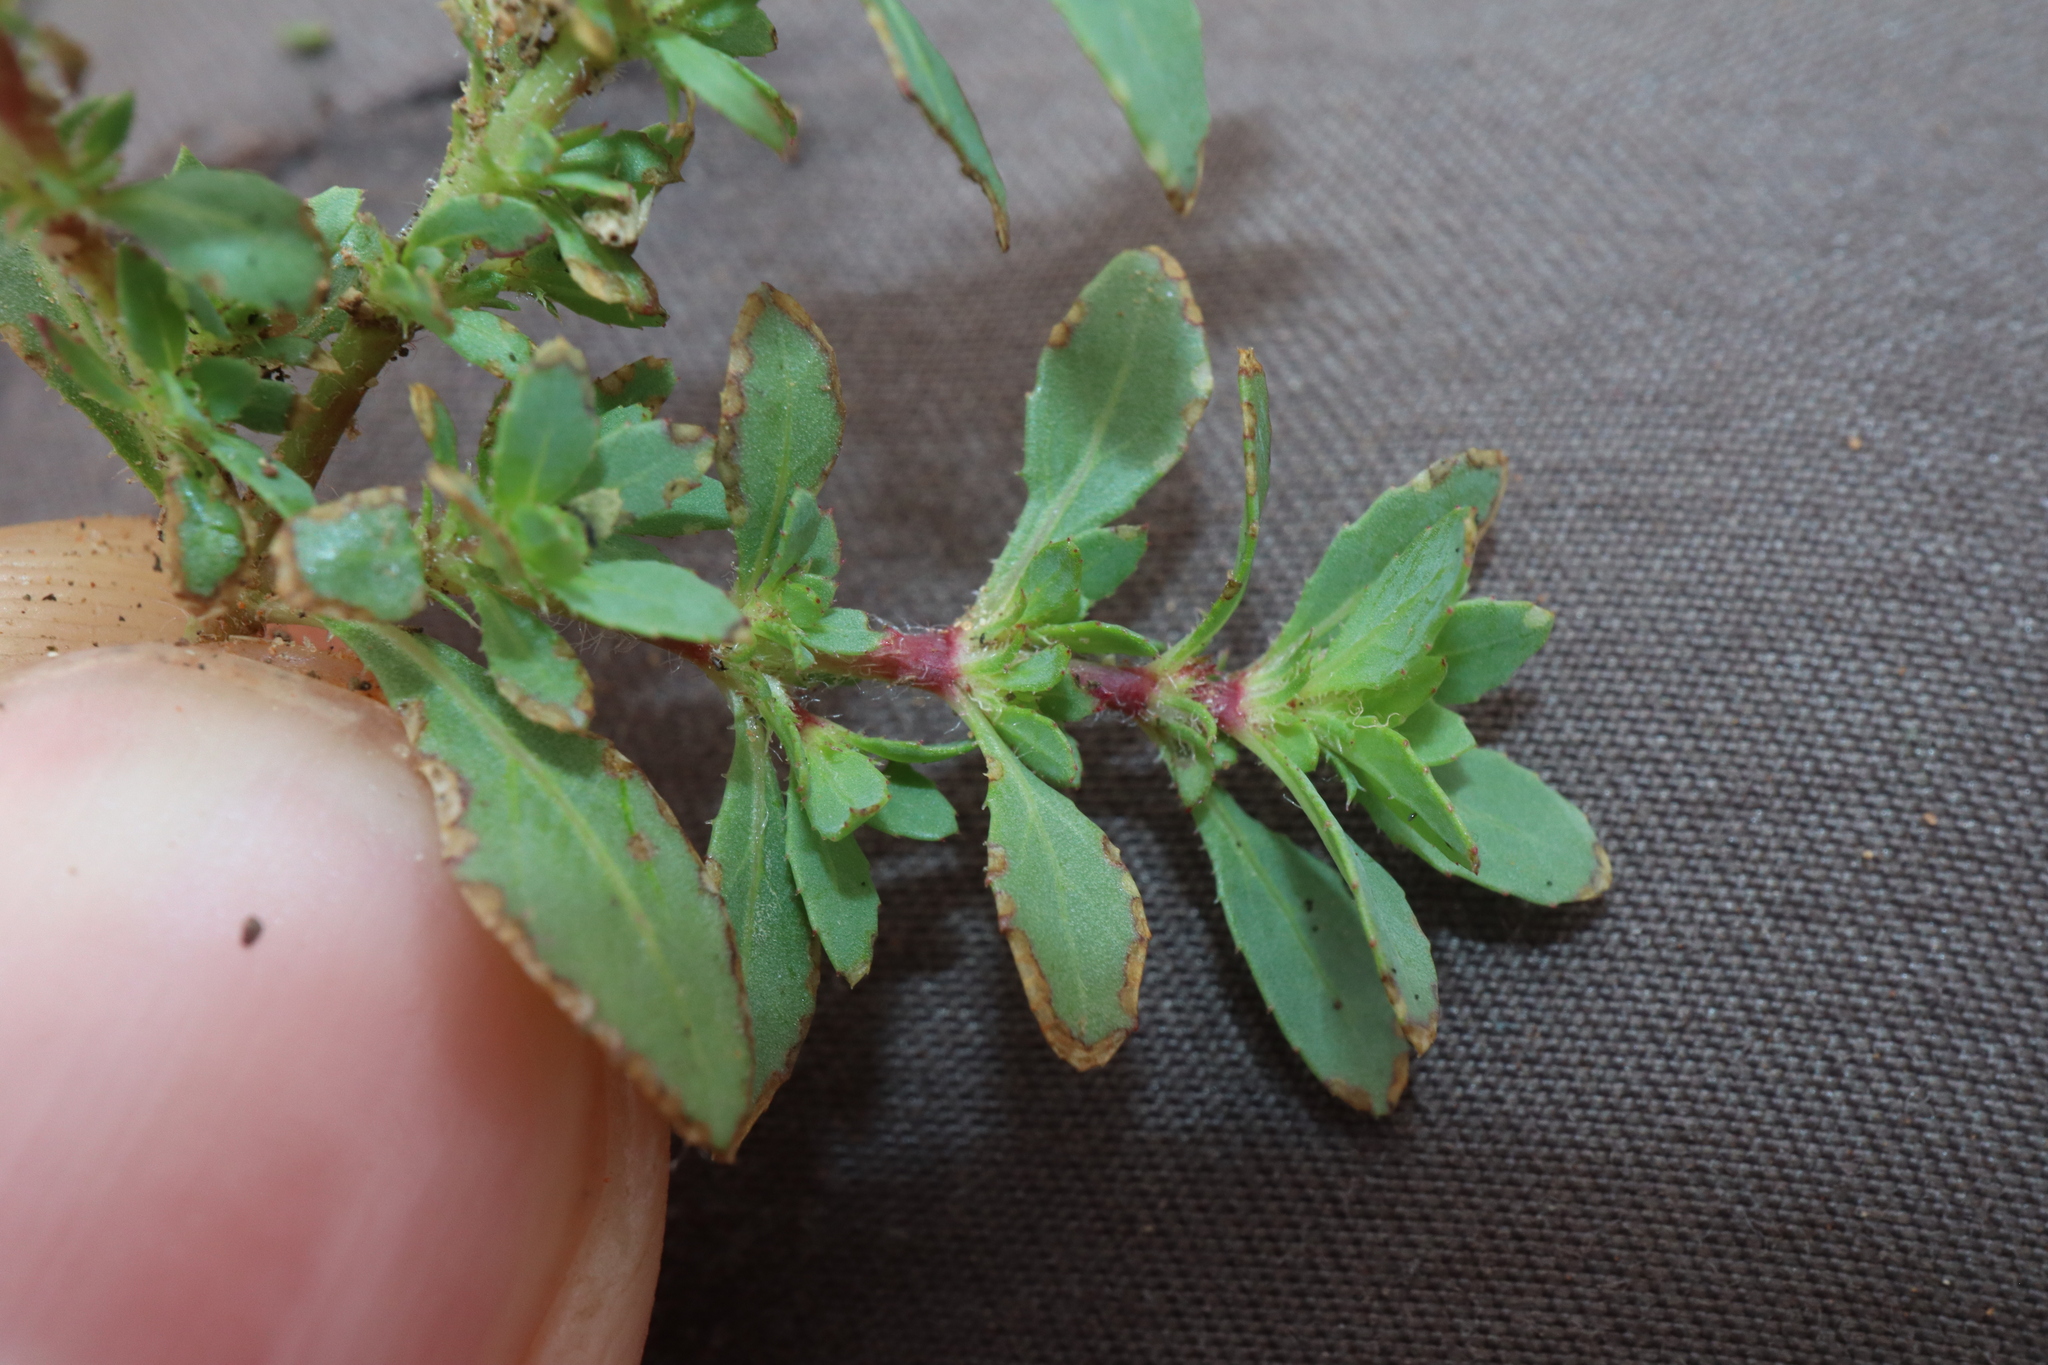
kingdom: Plantae
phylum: Tracheophyta
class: Magnoliopsida
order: Malpighiales
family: Elatinaceae
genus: Bergia
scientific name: Bergia trimera
